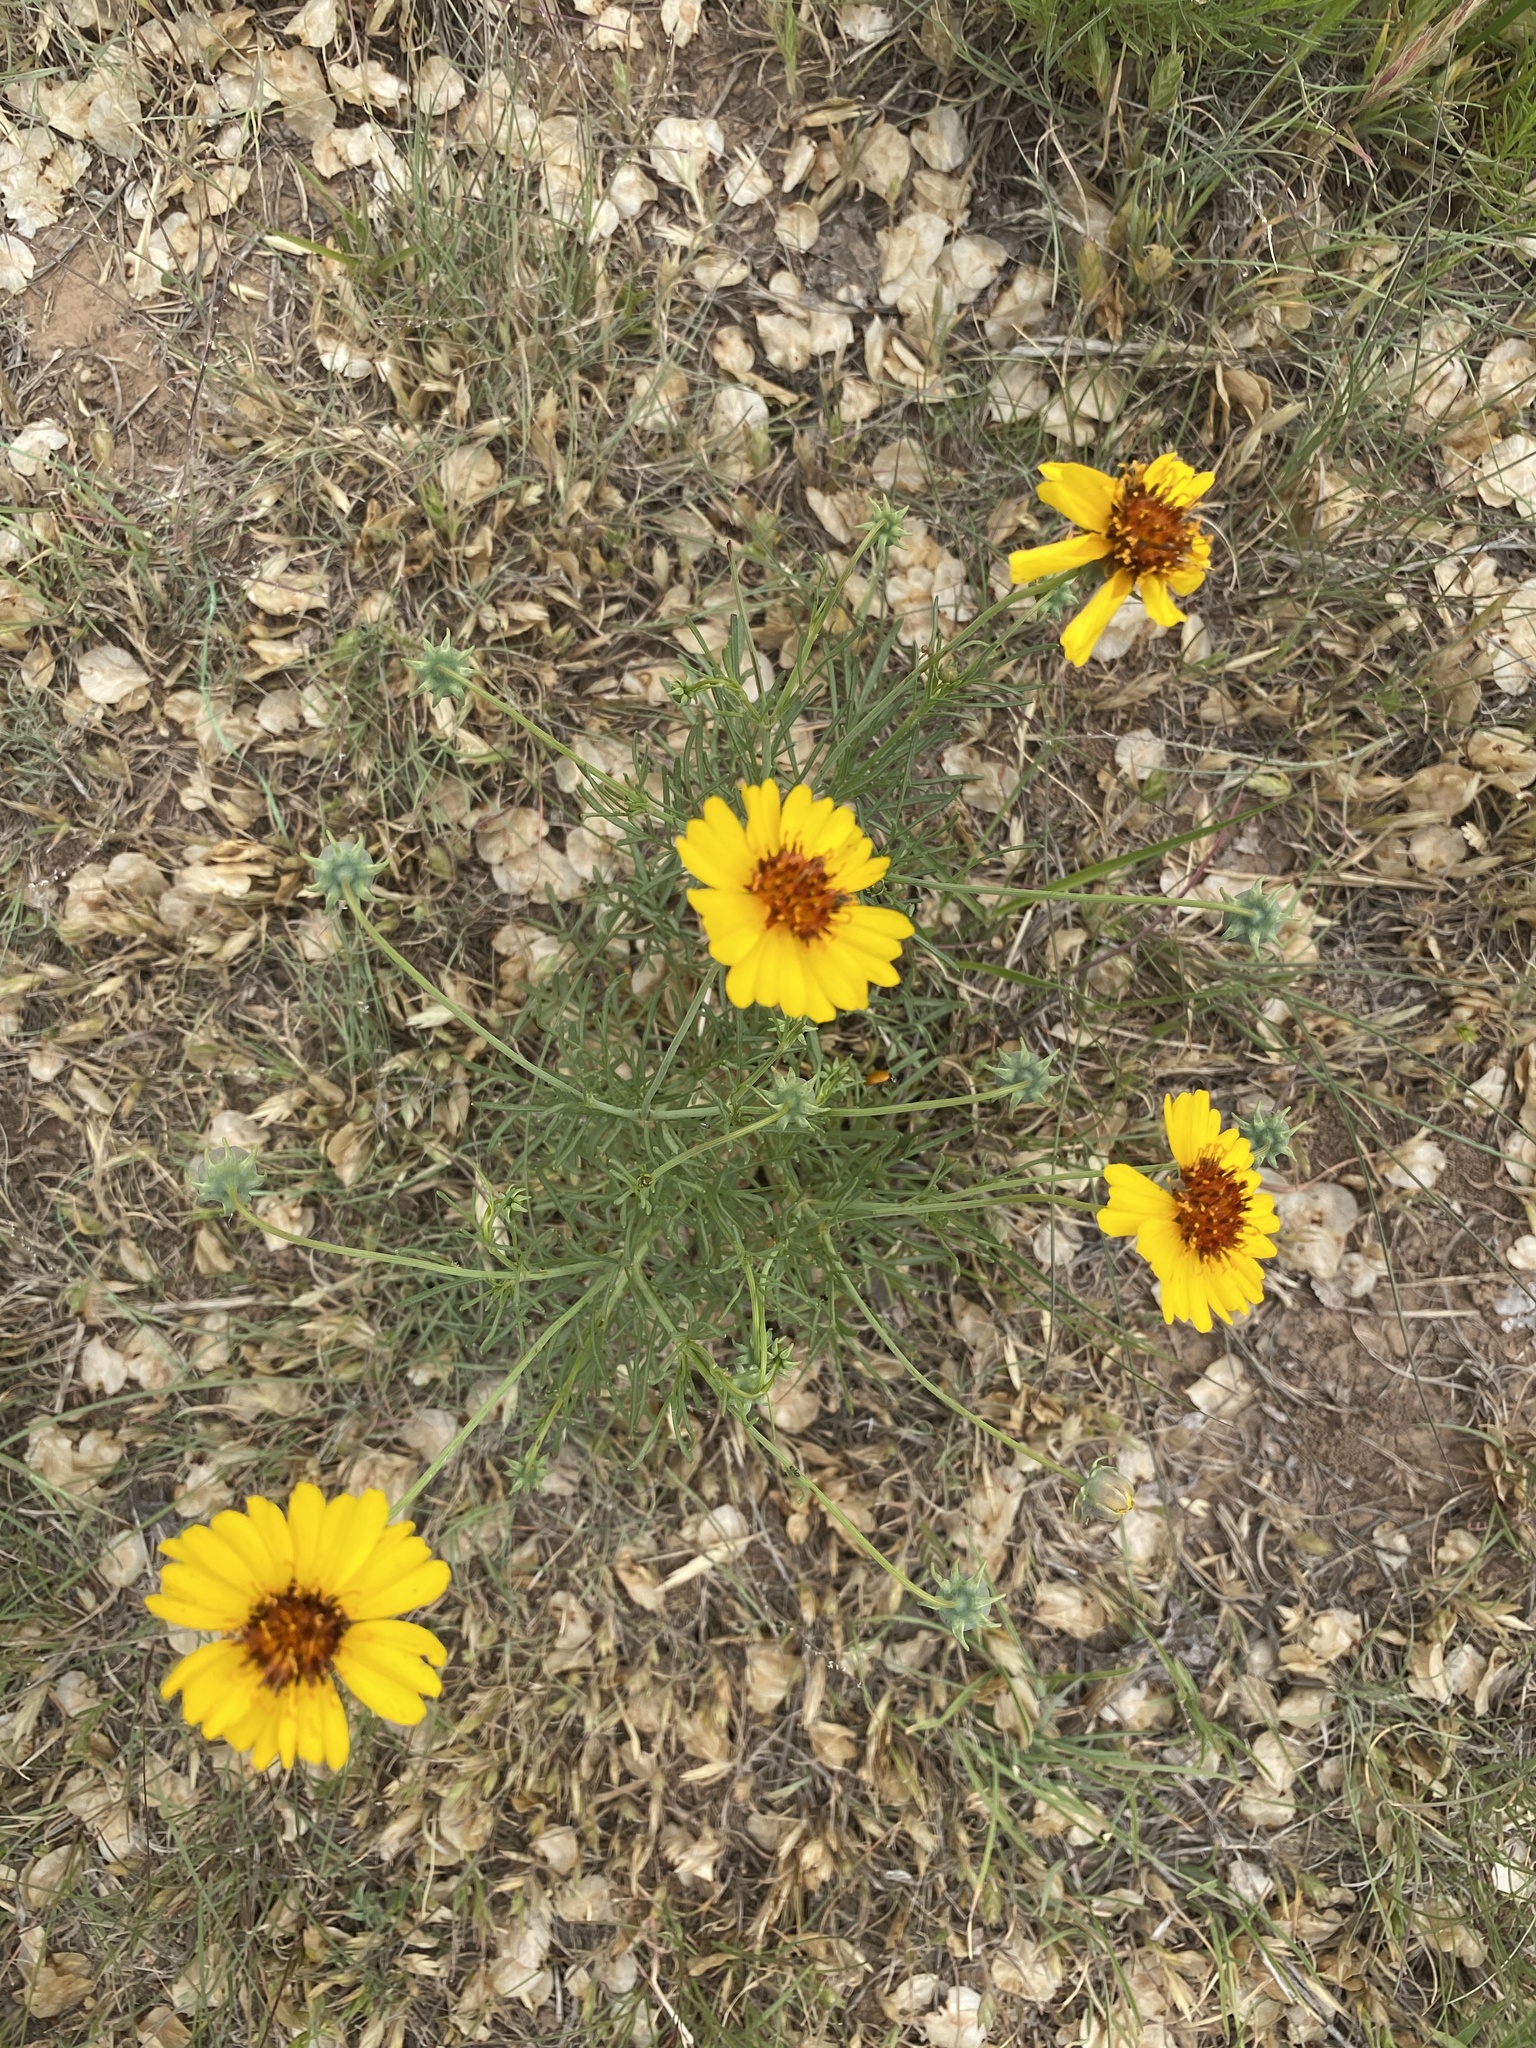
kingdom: Plantae
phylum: Tracheophyta
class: Magnoliopsida
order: Asterales
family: Asteraceae
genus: Thelesperma
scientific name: Thelesperma filifolium
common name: Stiff greenthread
